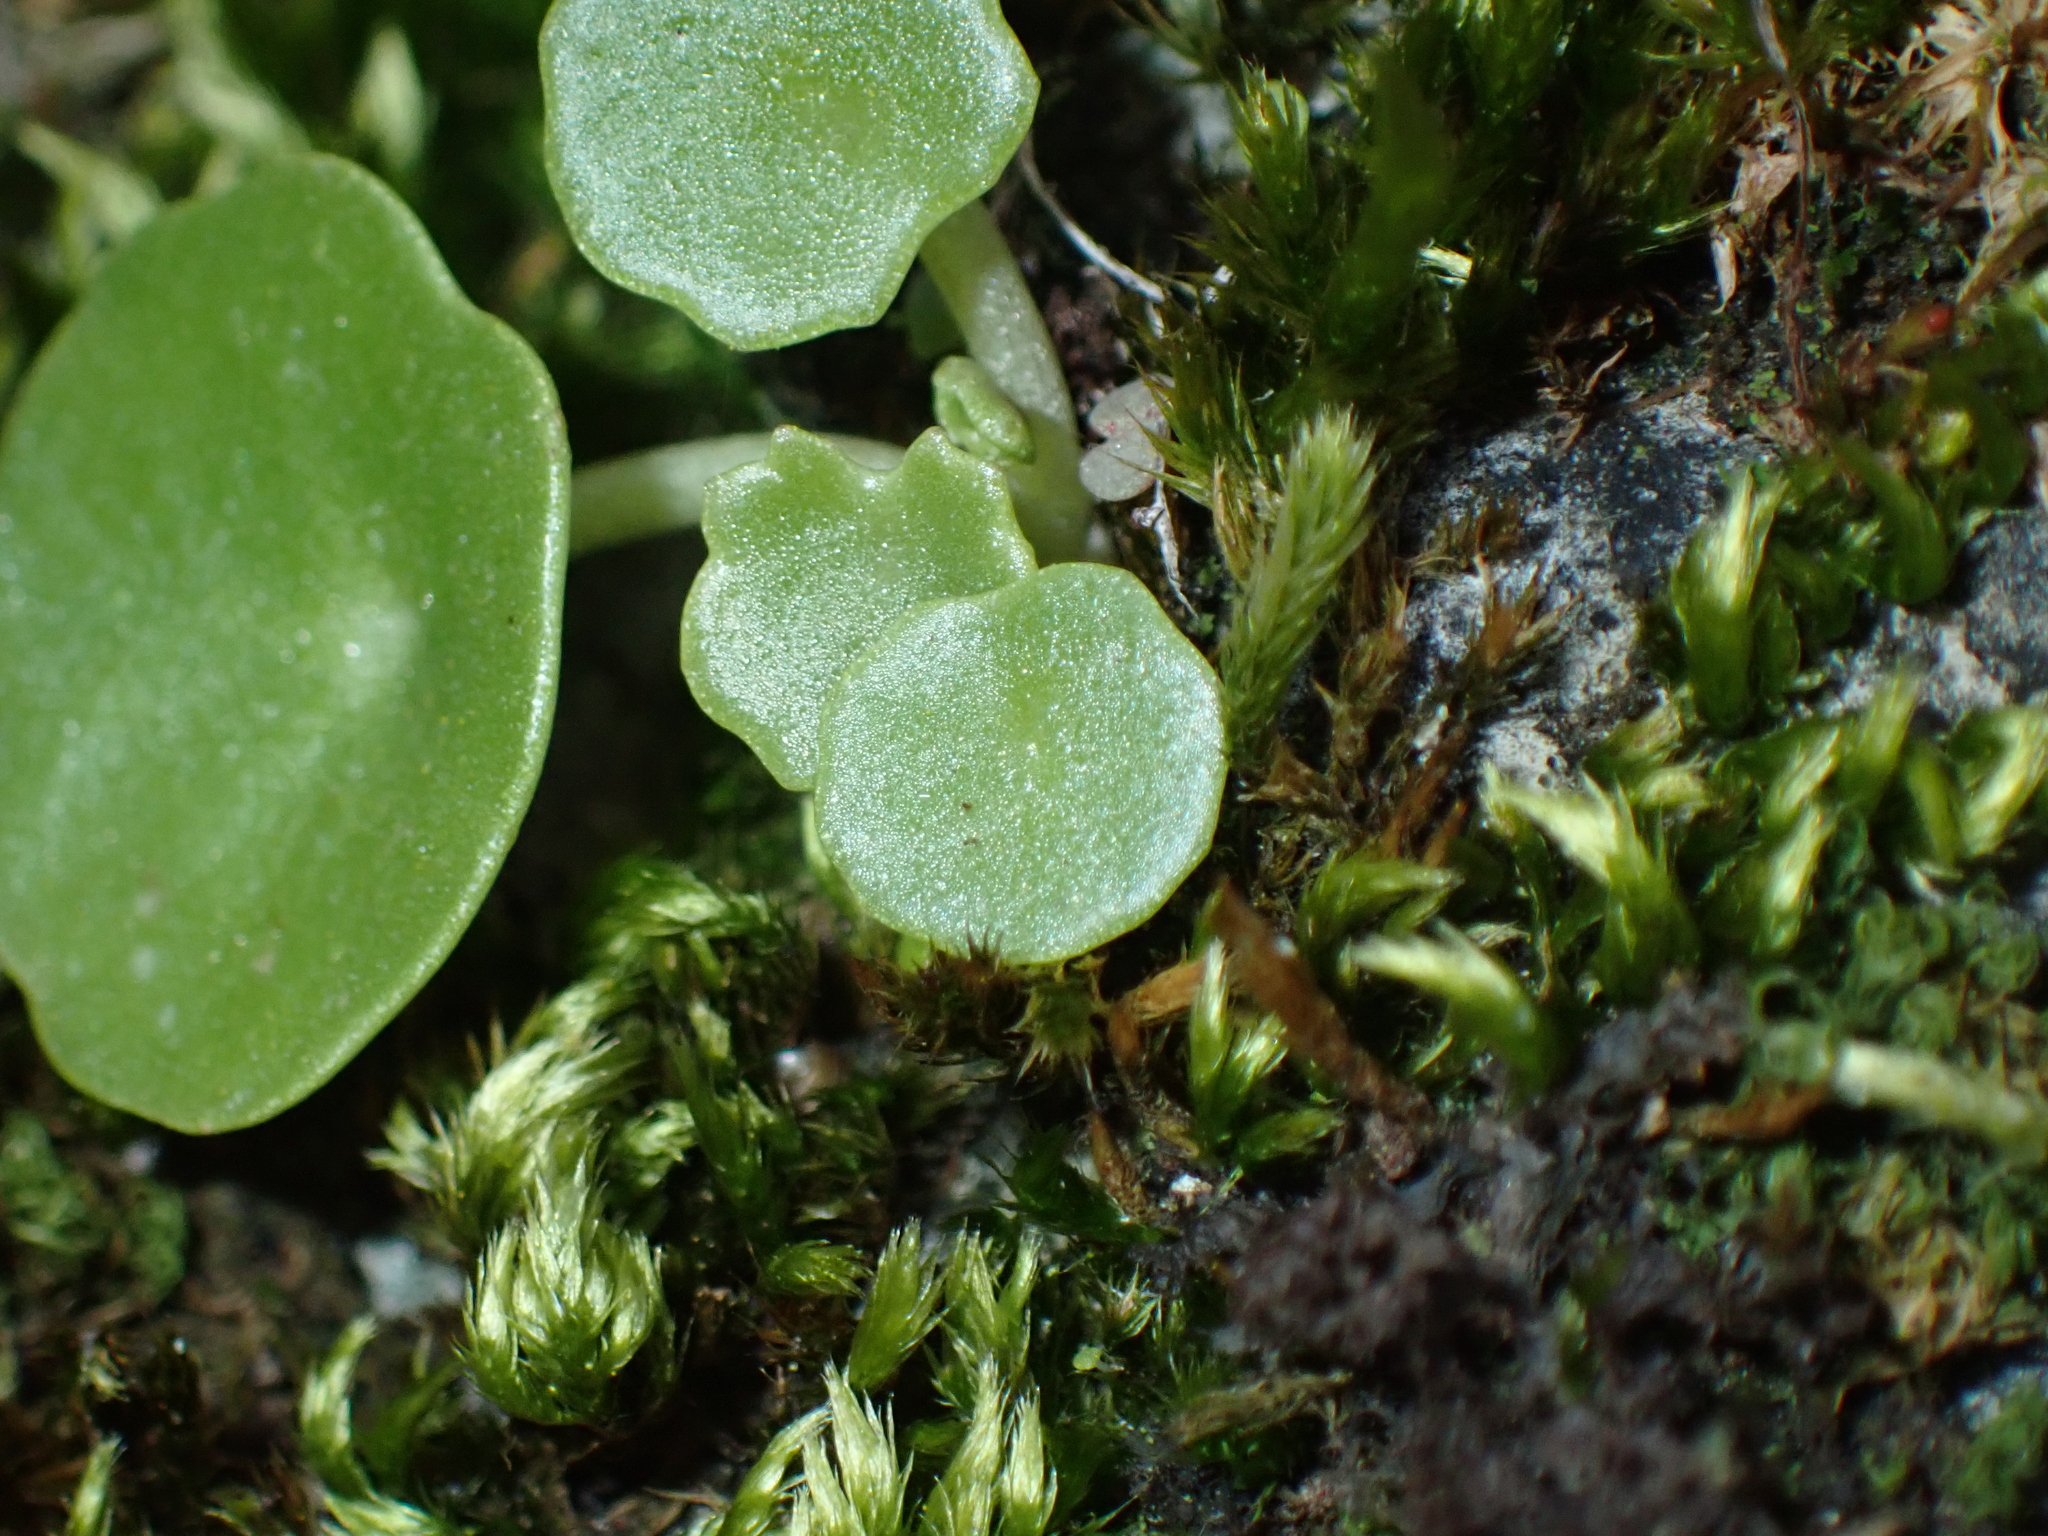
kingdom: Plantae
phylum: Tracheophyta
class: Magnoliopsida
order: Saxifragales
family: Crassulaceae
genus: Umbilicus
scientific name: Umbilicus rupestris
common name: Navelwort
